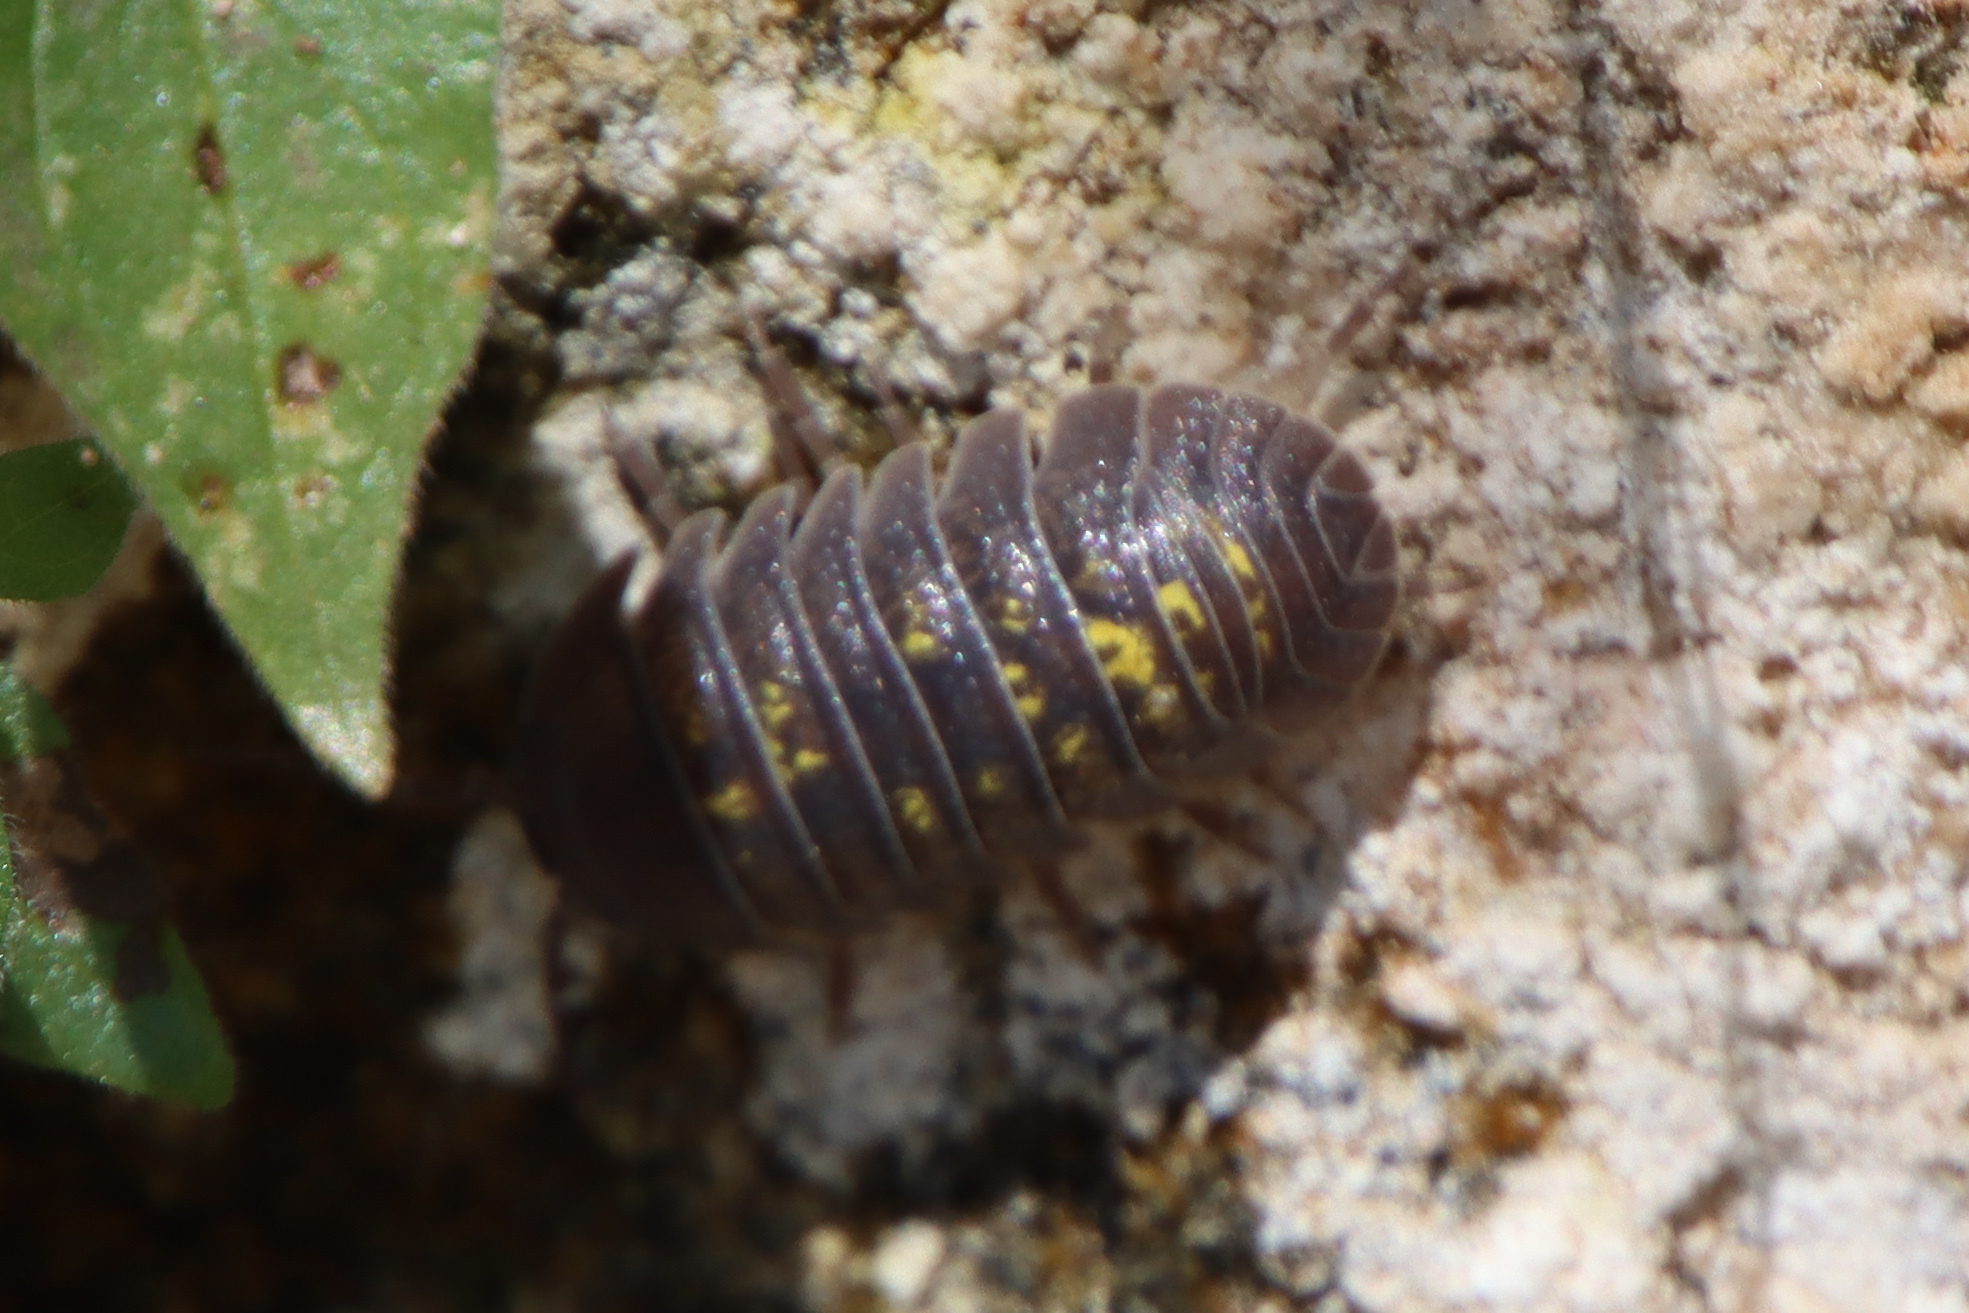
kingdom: Animalia
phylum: Arthropoda
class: Malacostraca
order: Isopoda
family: Armadillidiidae
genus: Armadillidium
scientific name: Armadillidium granulatum
